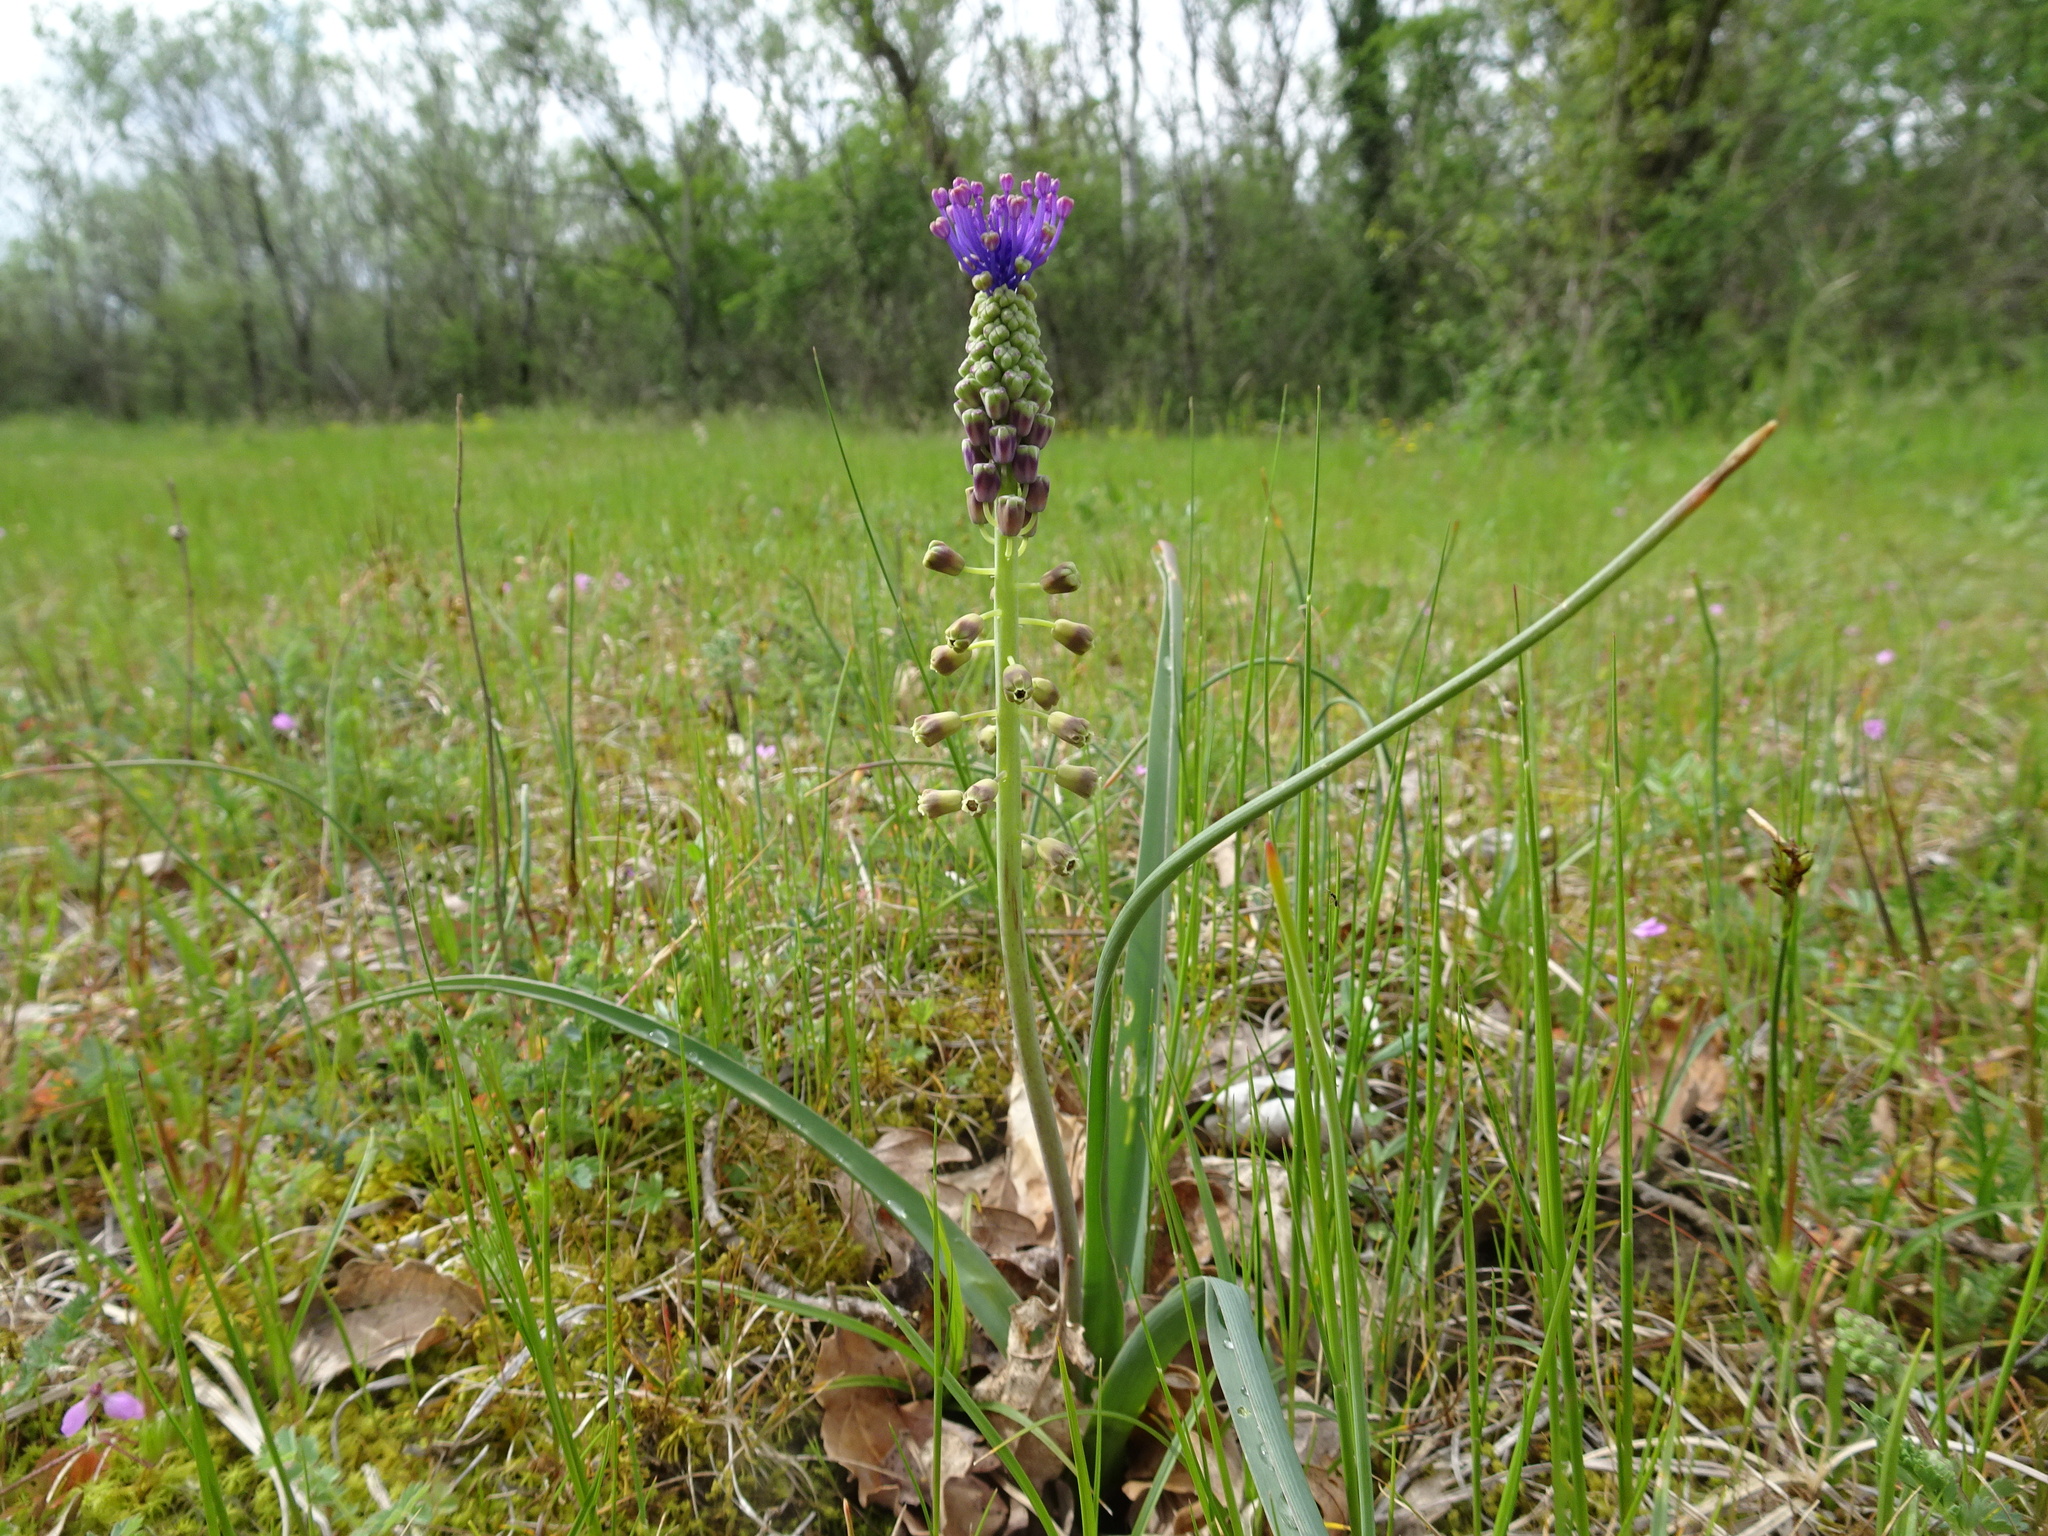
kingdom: Plantae
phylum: Tracheophyta
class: Liliopsida
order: Asparagales
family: Asparagaceae
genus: Muscari
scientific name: Muscari comosum
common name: Tassel hyacinth
